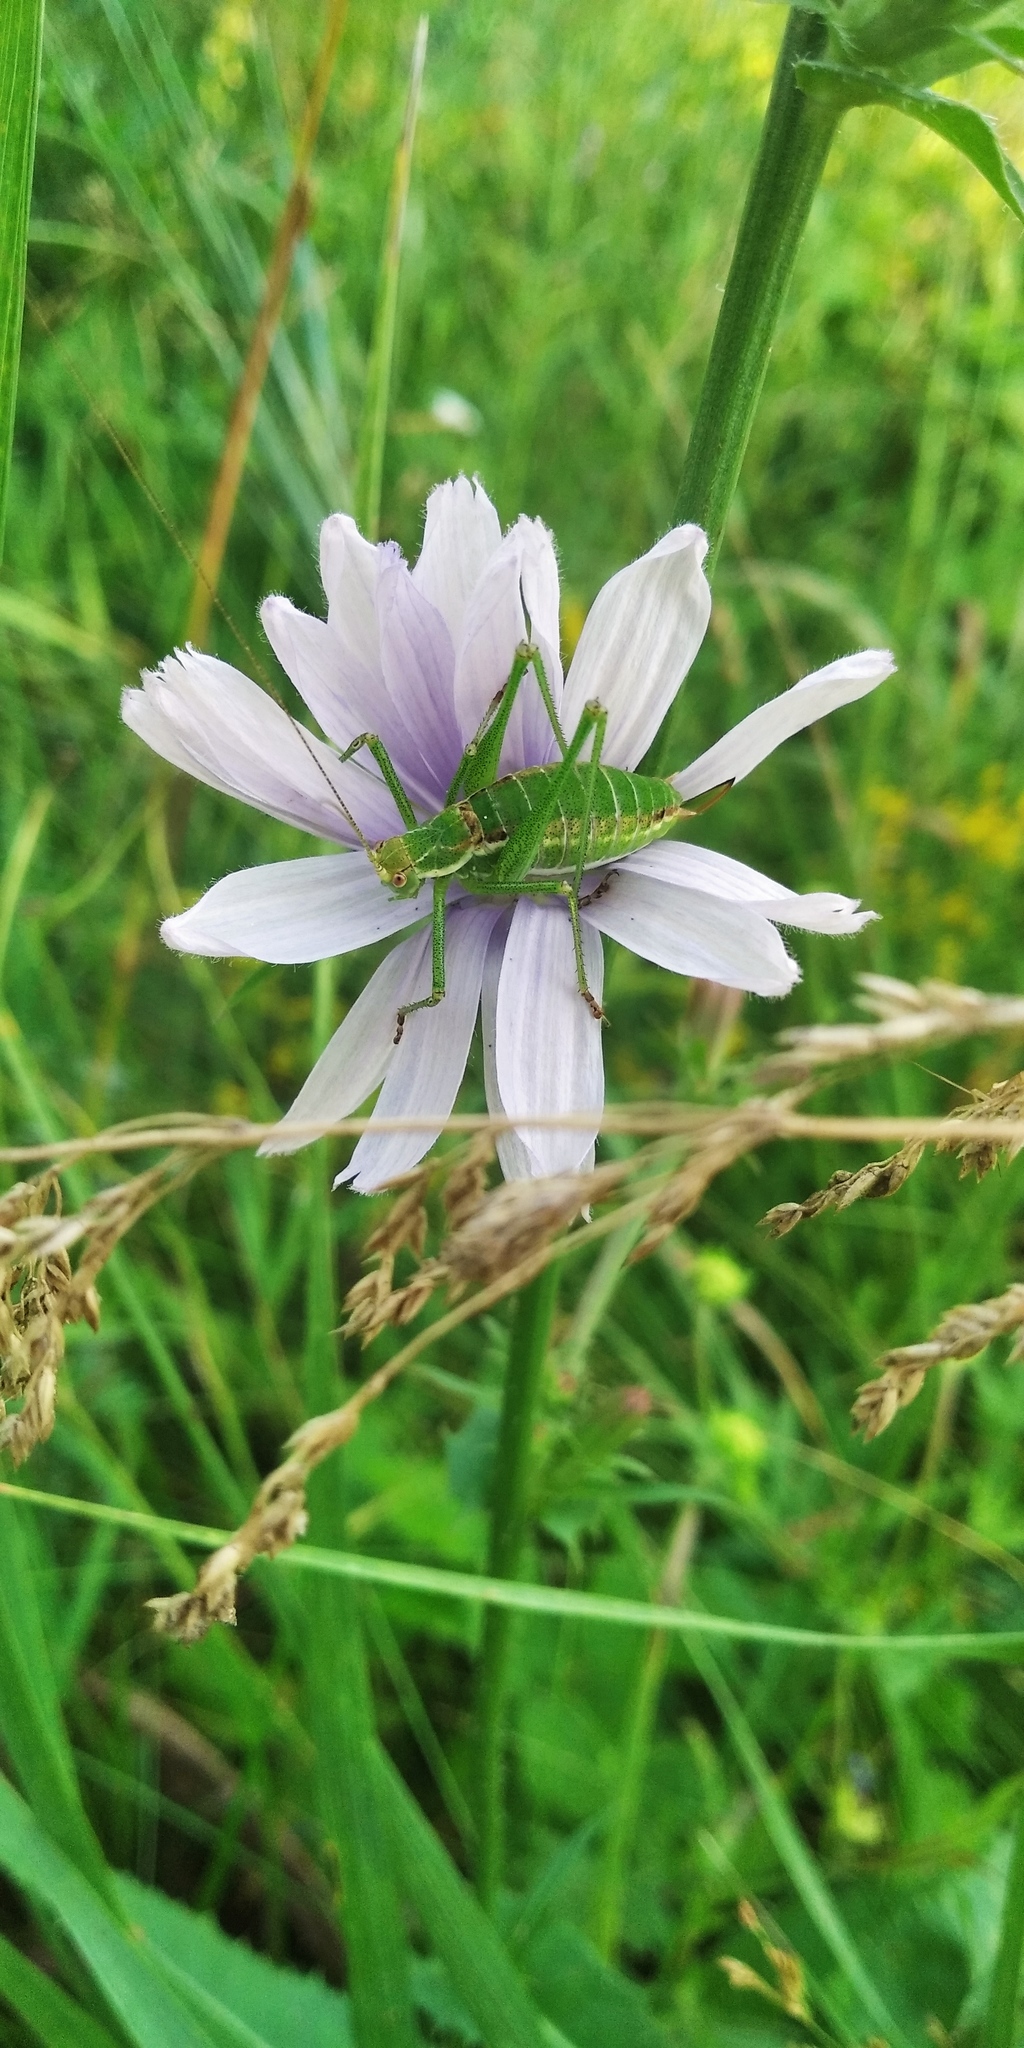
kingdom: Animalia
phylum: Arthropoda
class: Insecta
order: Orthoptera
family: Tettigoniidae
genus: Leptophyes
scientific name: Leptophyes albovittata
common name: Striped bush-cricket
